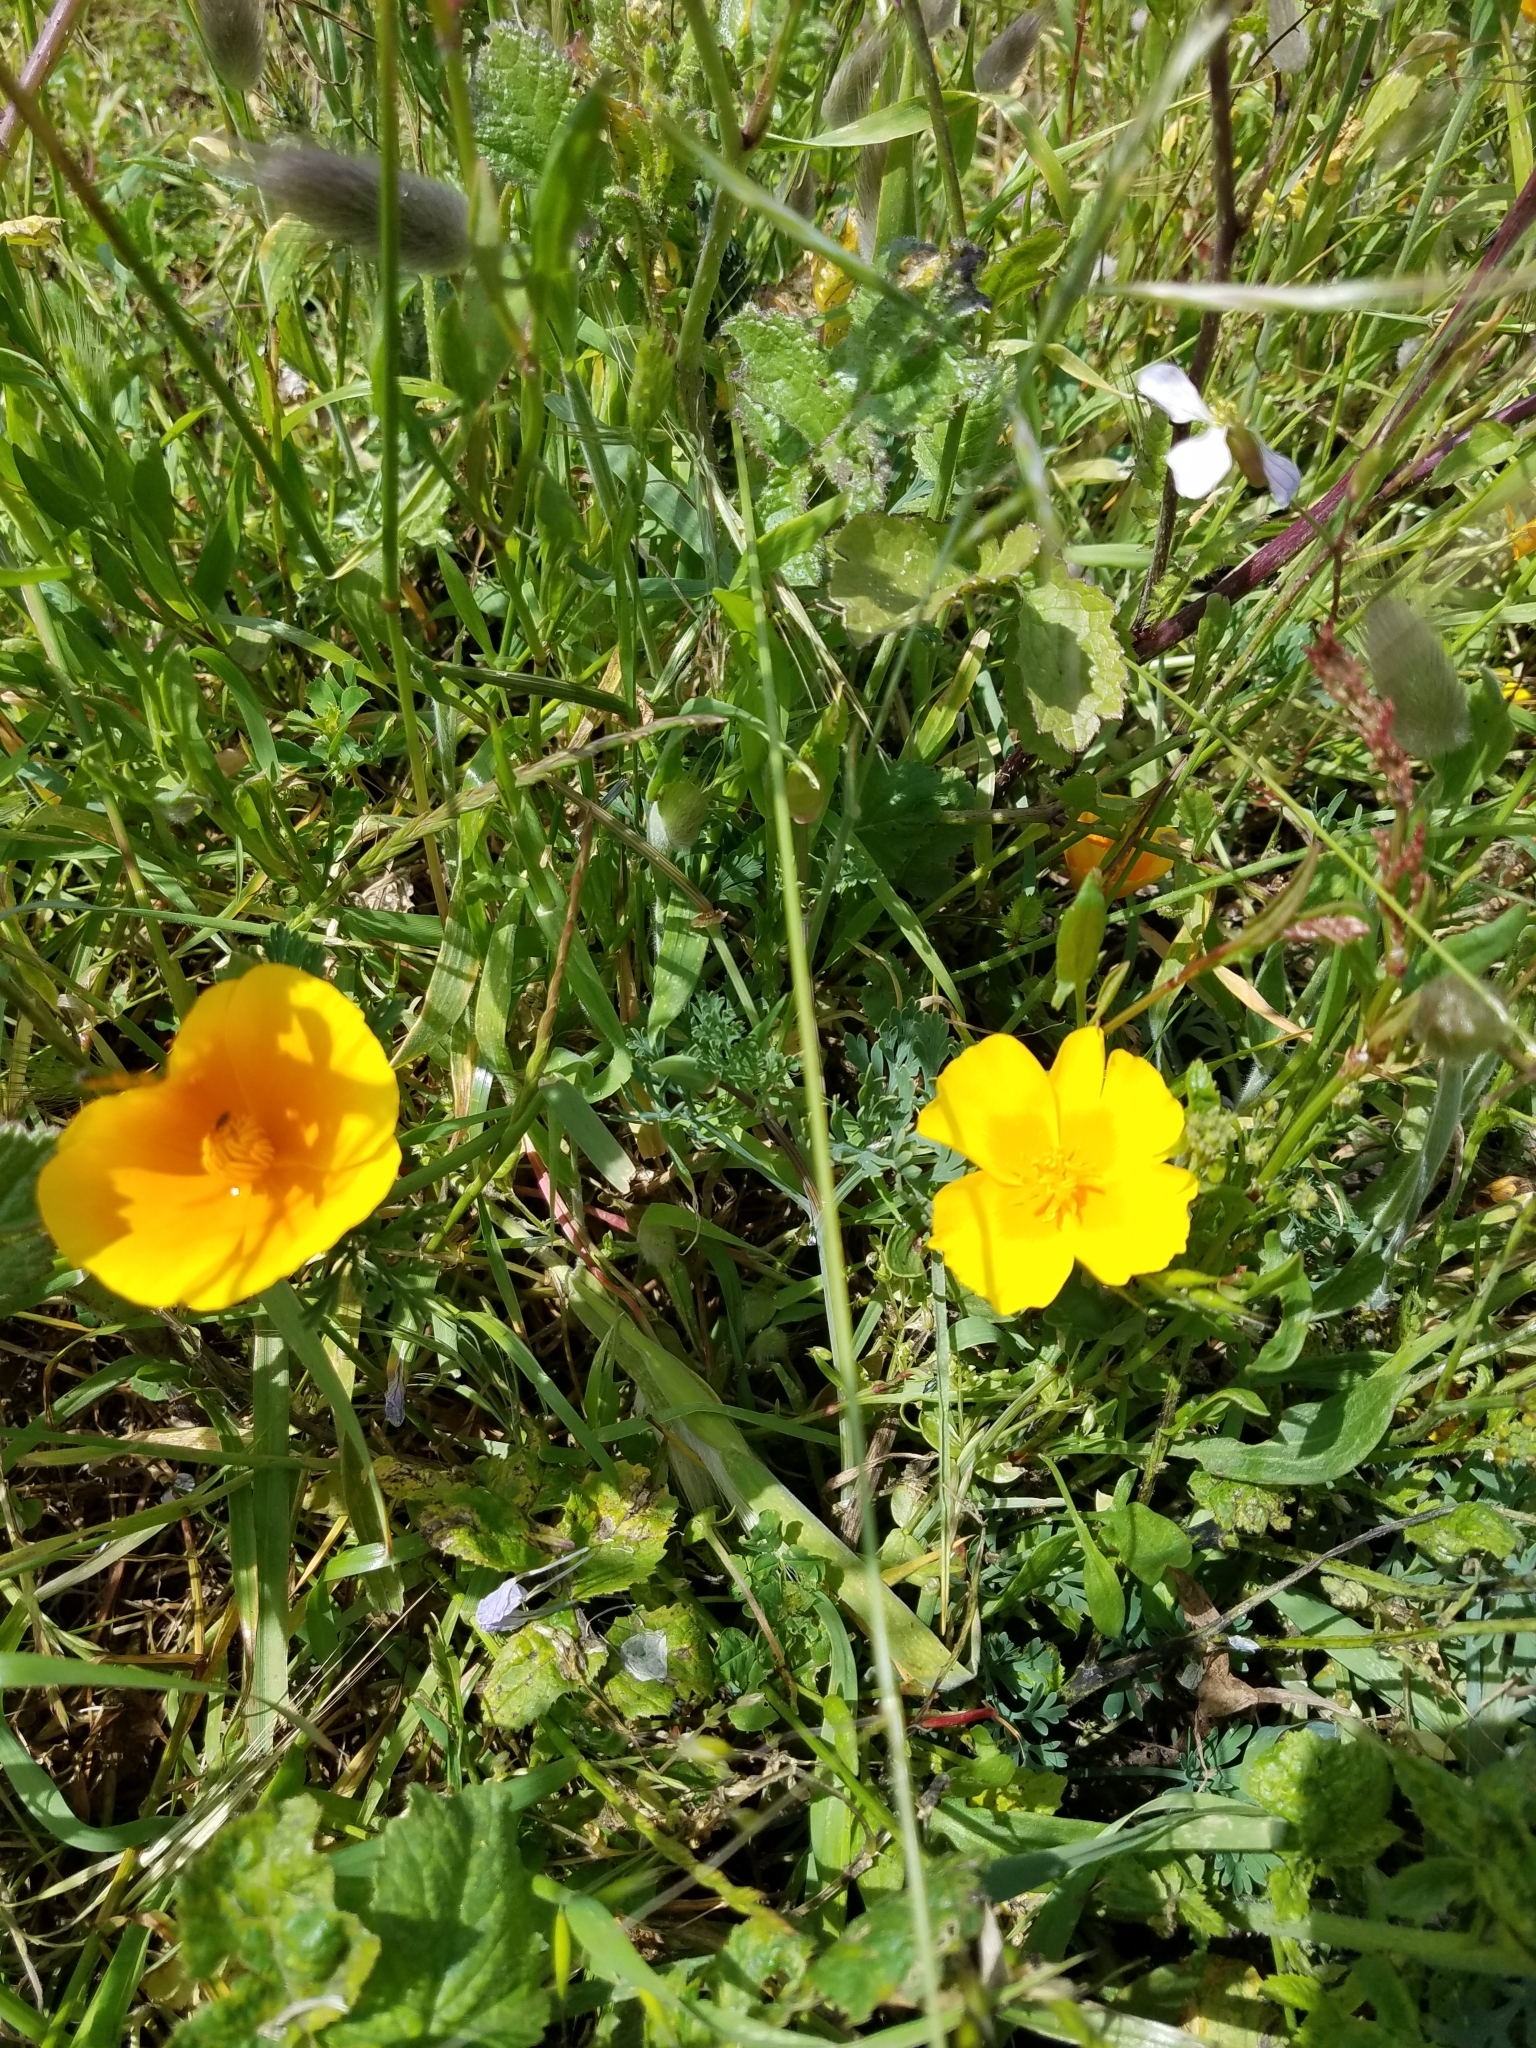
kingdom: Plantae
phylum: Tracheophyta
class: Magnoliopsida
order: Ranunculales
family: Papaveraceae
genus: Eschscholzia
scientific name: Eschscholzia californica
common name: California poppy
